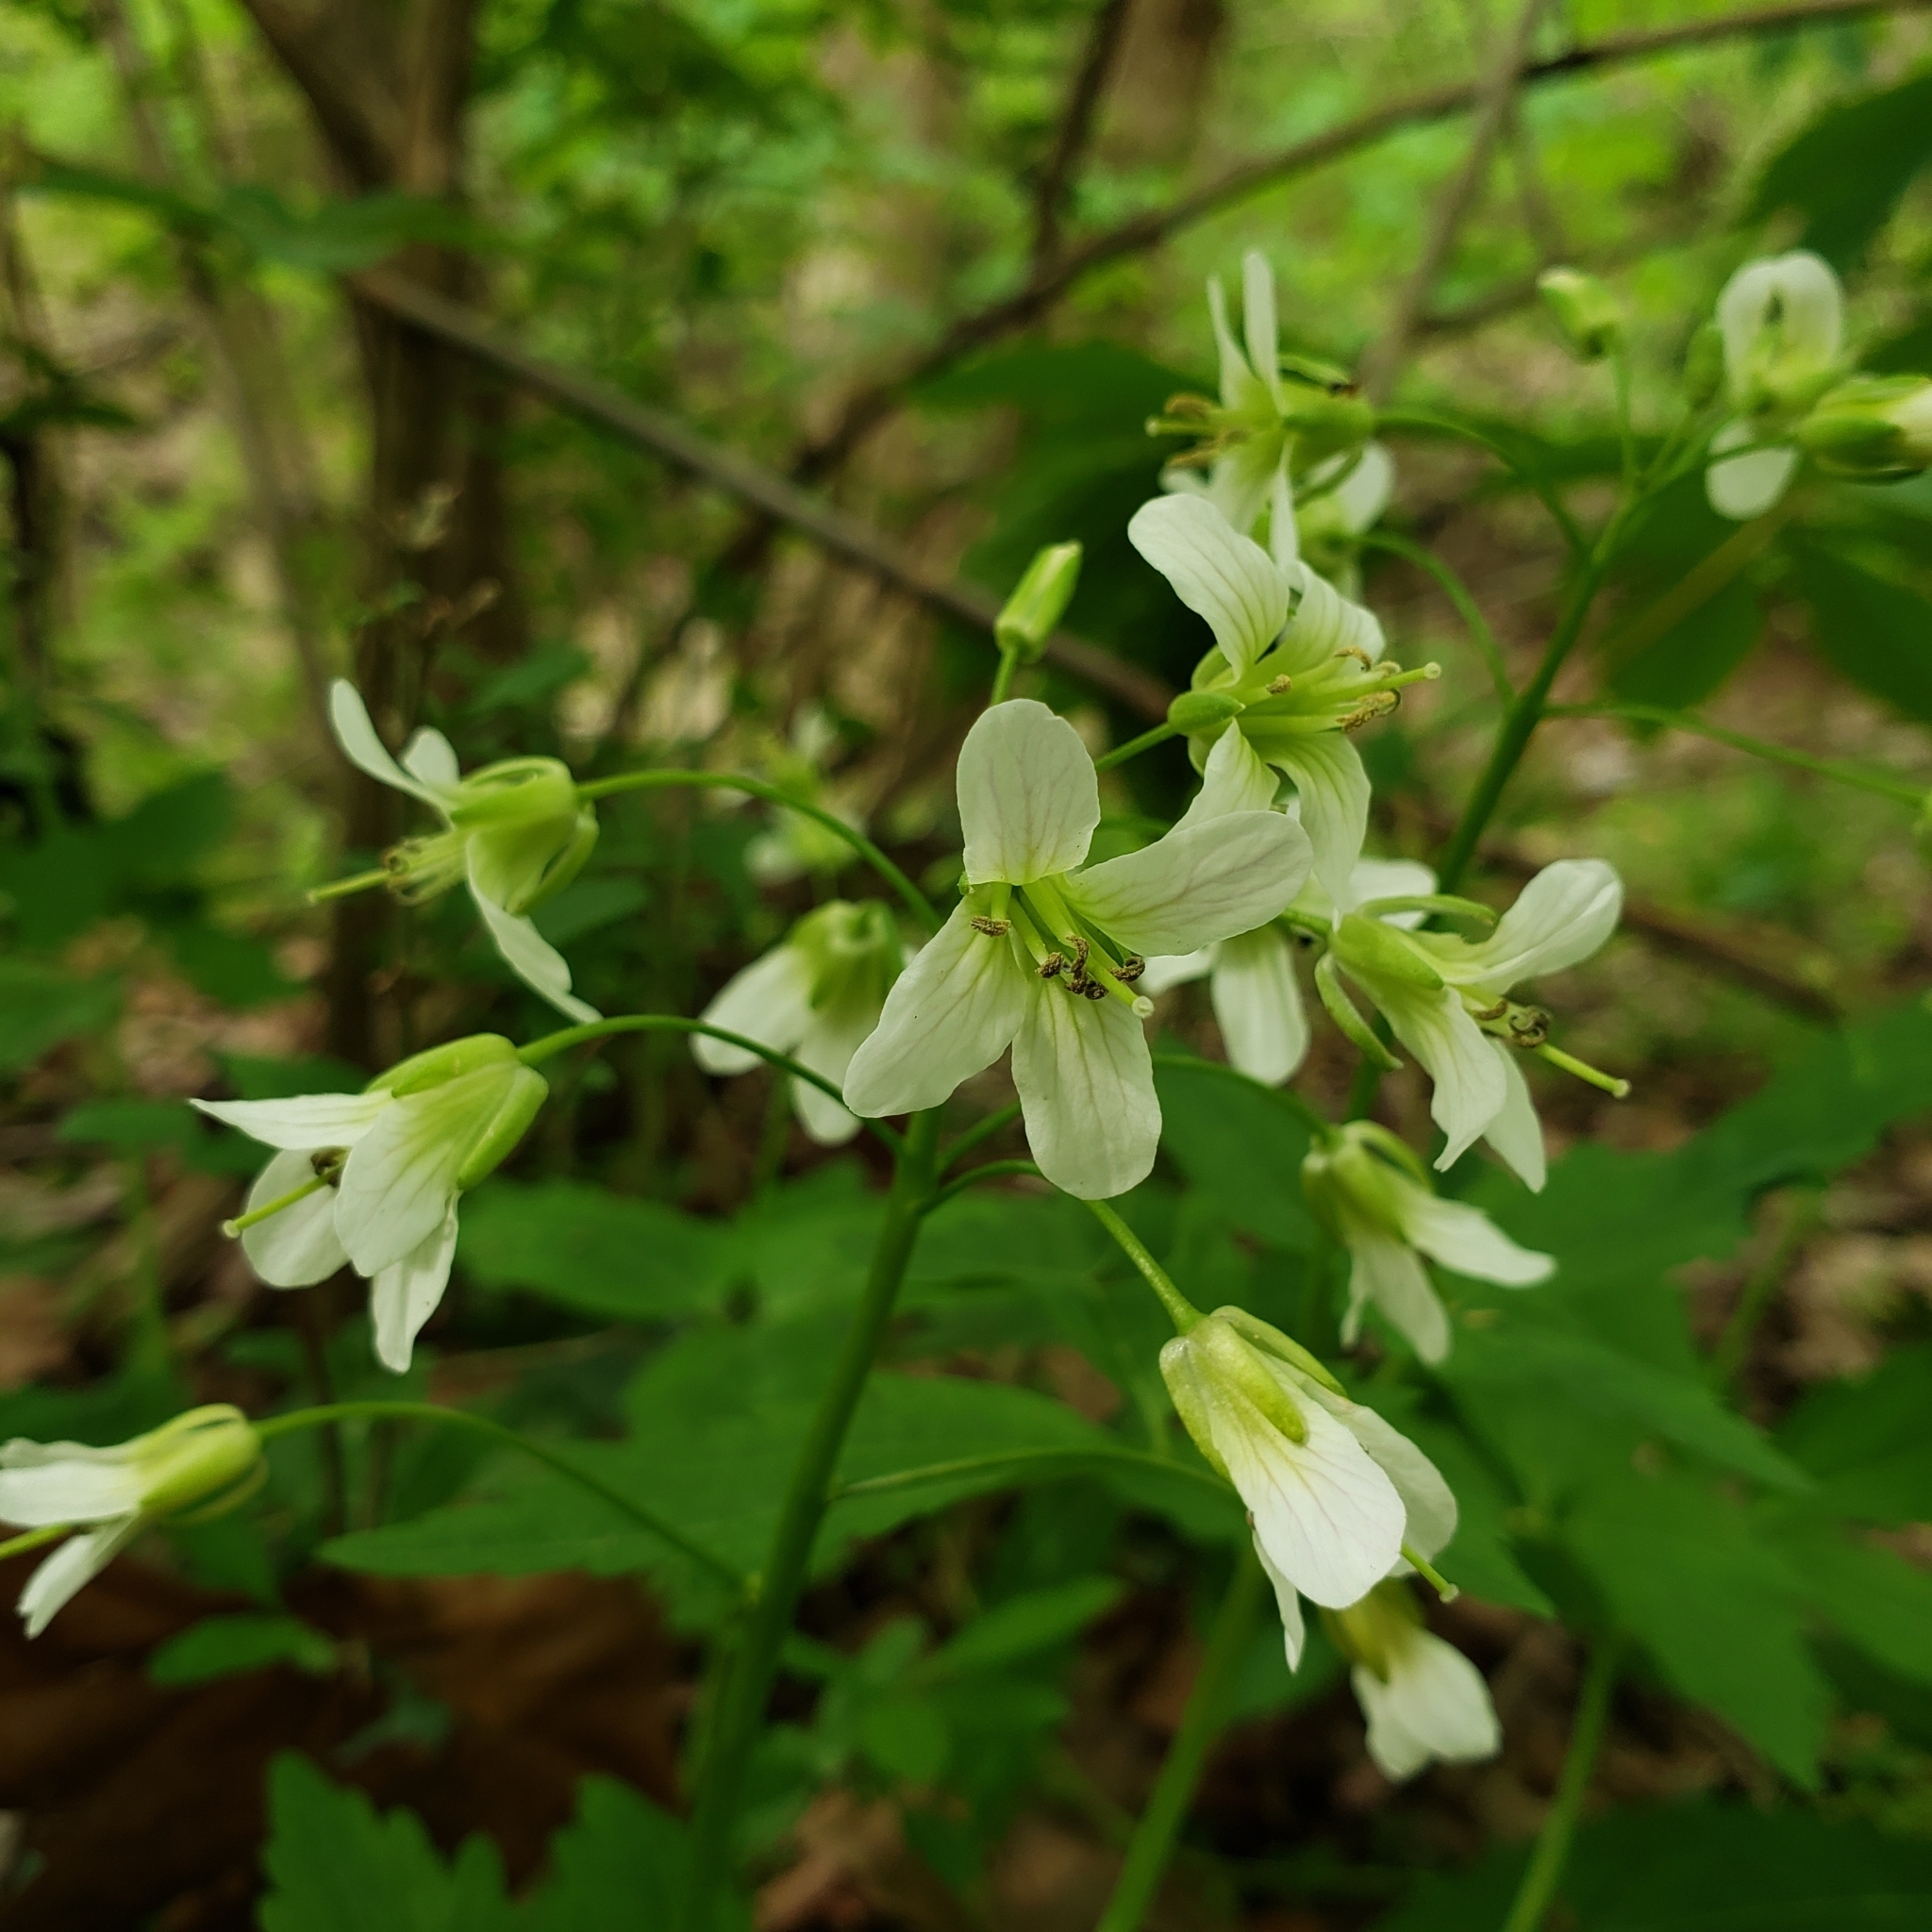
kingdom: Plantae
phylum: Tracheophyta
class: Magnoliopsida
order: Brassicales
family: Brassicaceae
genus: Cardamine
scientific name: Cardamine diphylla
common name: Broad-leaved toothwort
